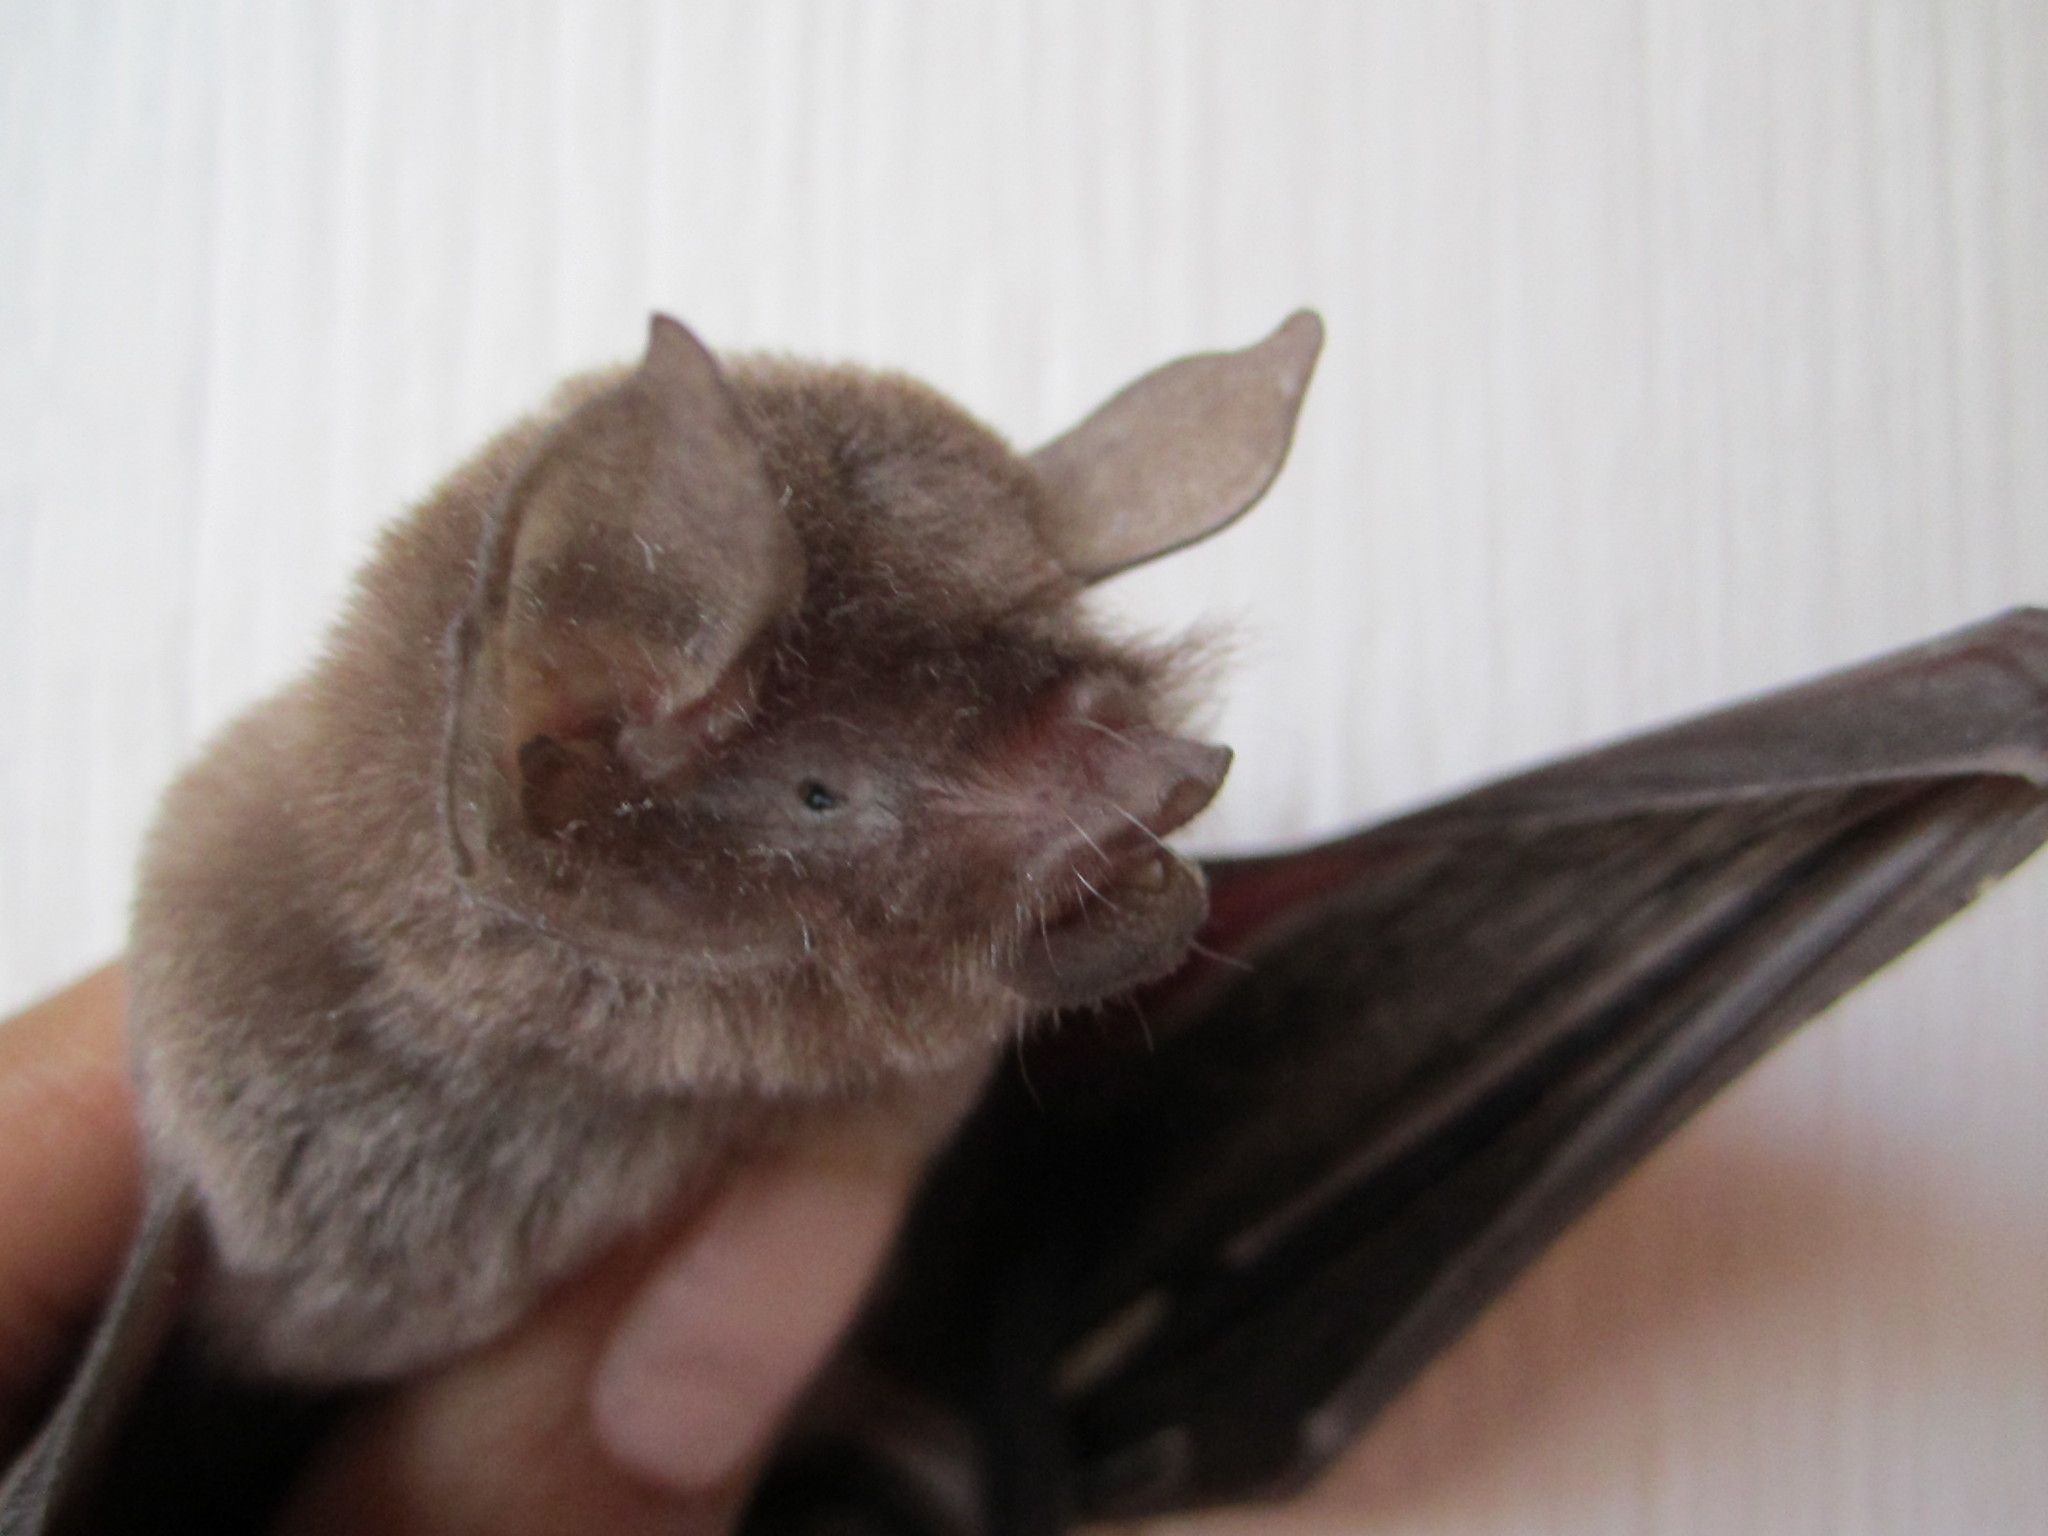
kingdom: Animalia
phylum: Chordata
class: Mammalia
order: Chiroptera
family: Mormoopidae
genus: Pteronotus
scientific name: Pteronotus parnellii
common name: Common mustached bat
